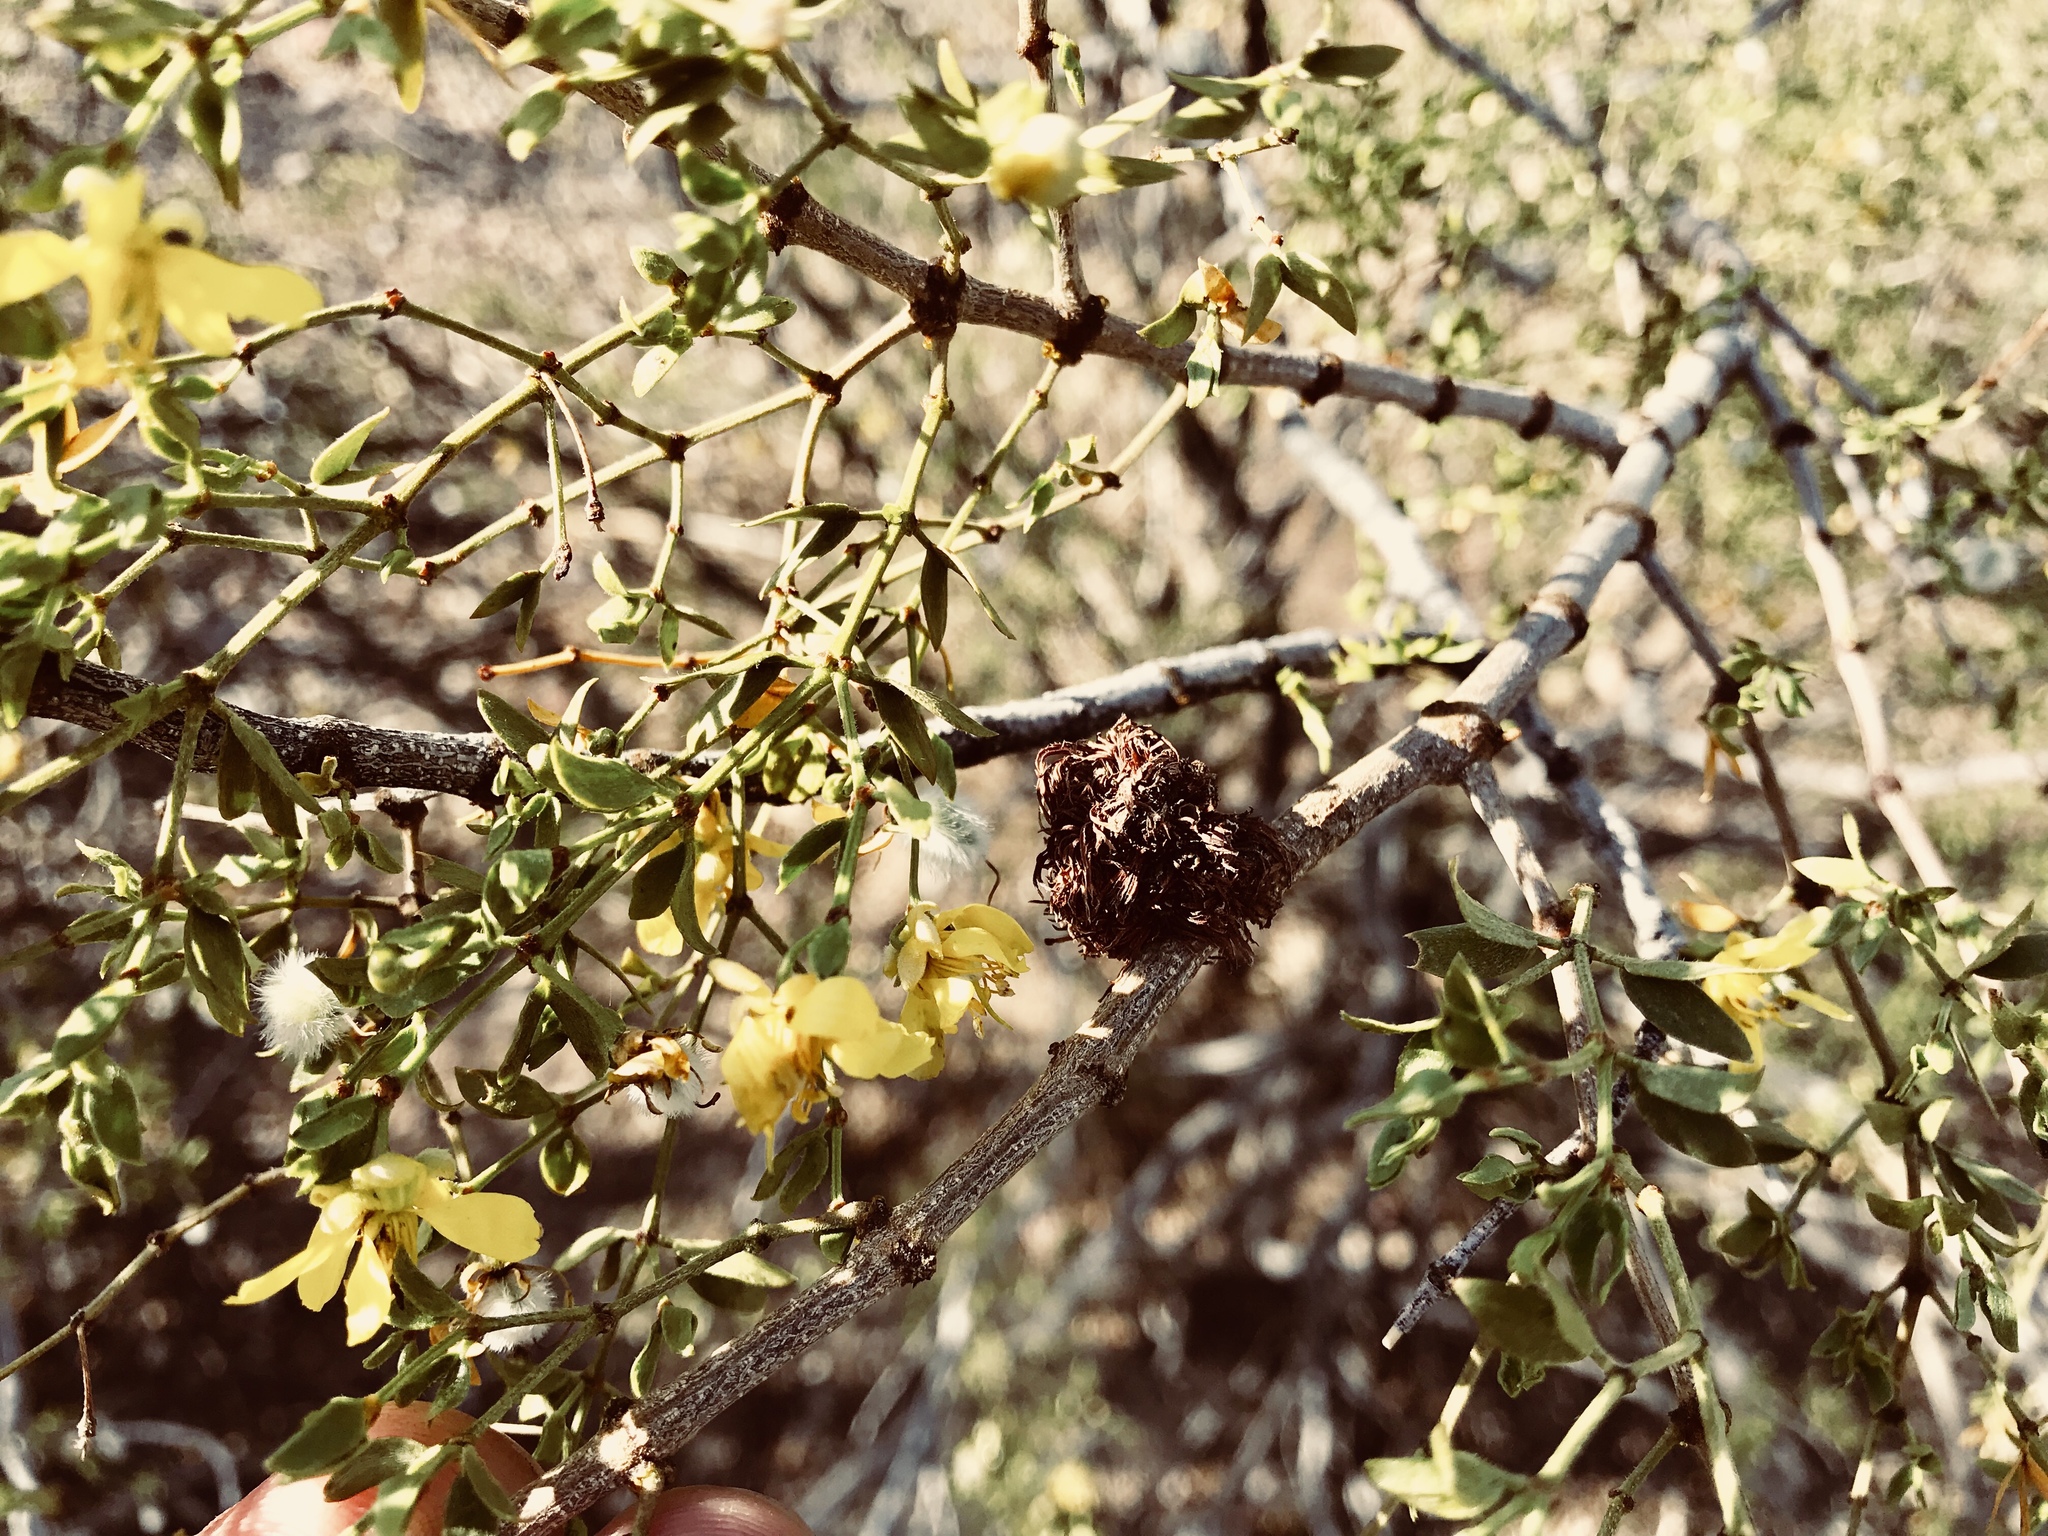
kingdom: Animalia
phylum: Arthropoda
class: Insecta
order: Diptera
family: Cecidomyiidae
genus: Asphondylia
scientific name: Asphondylia auripila
